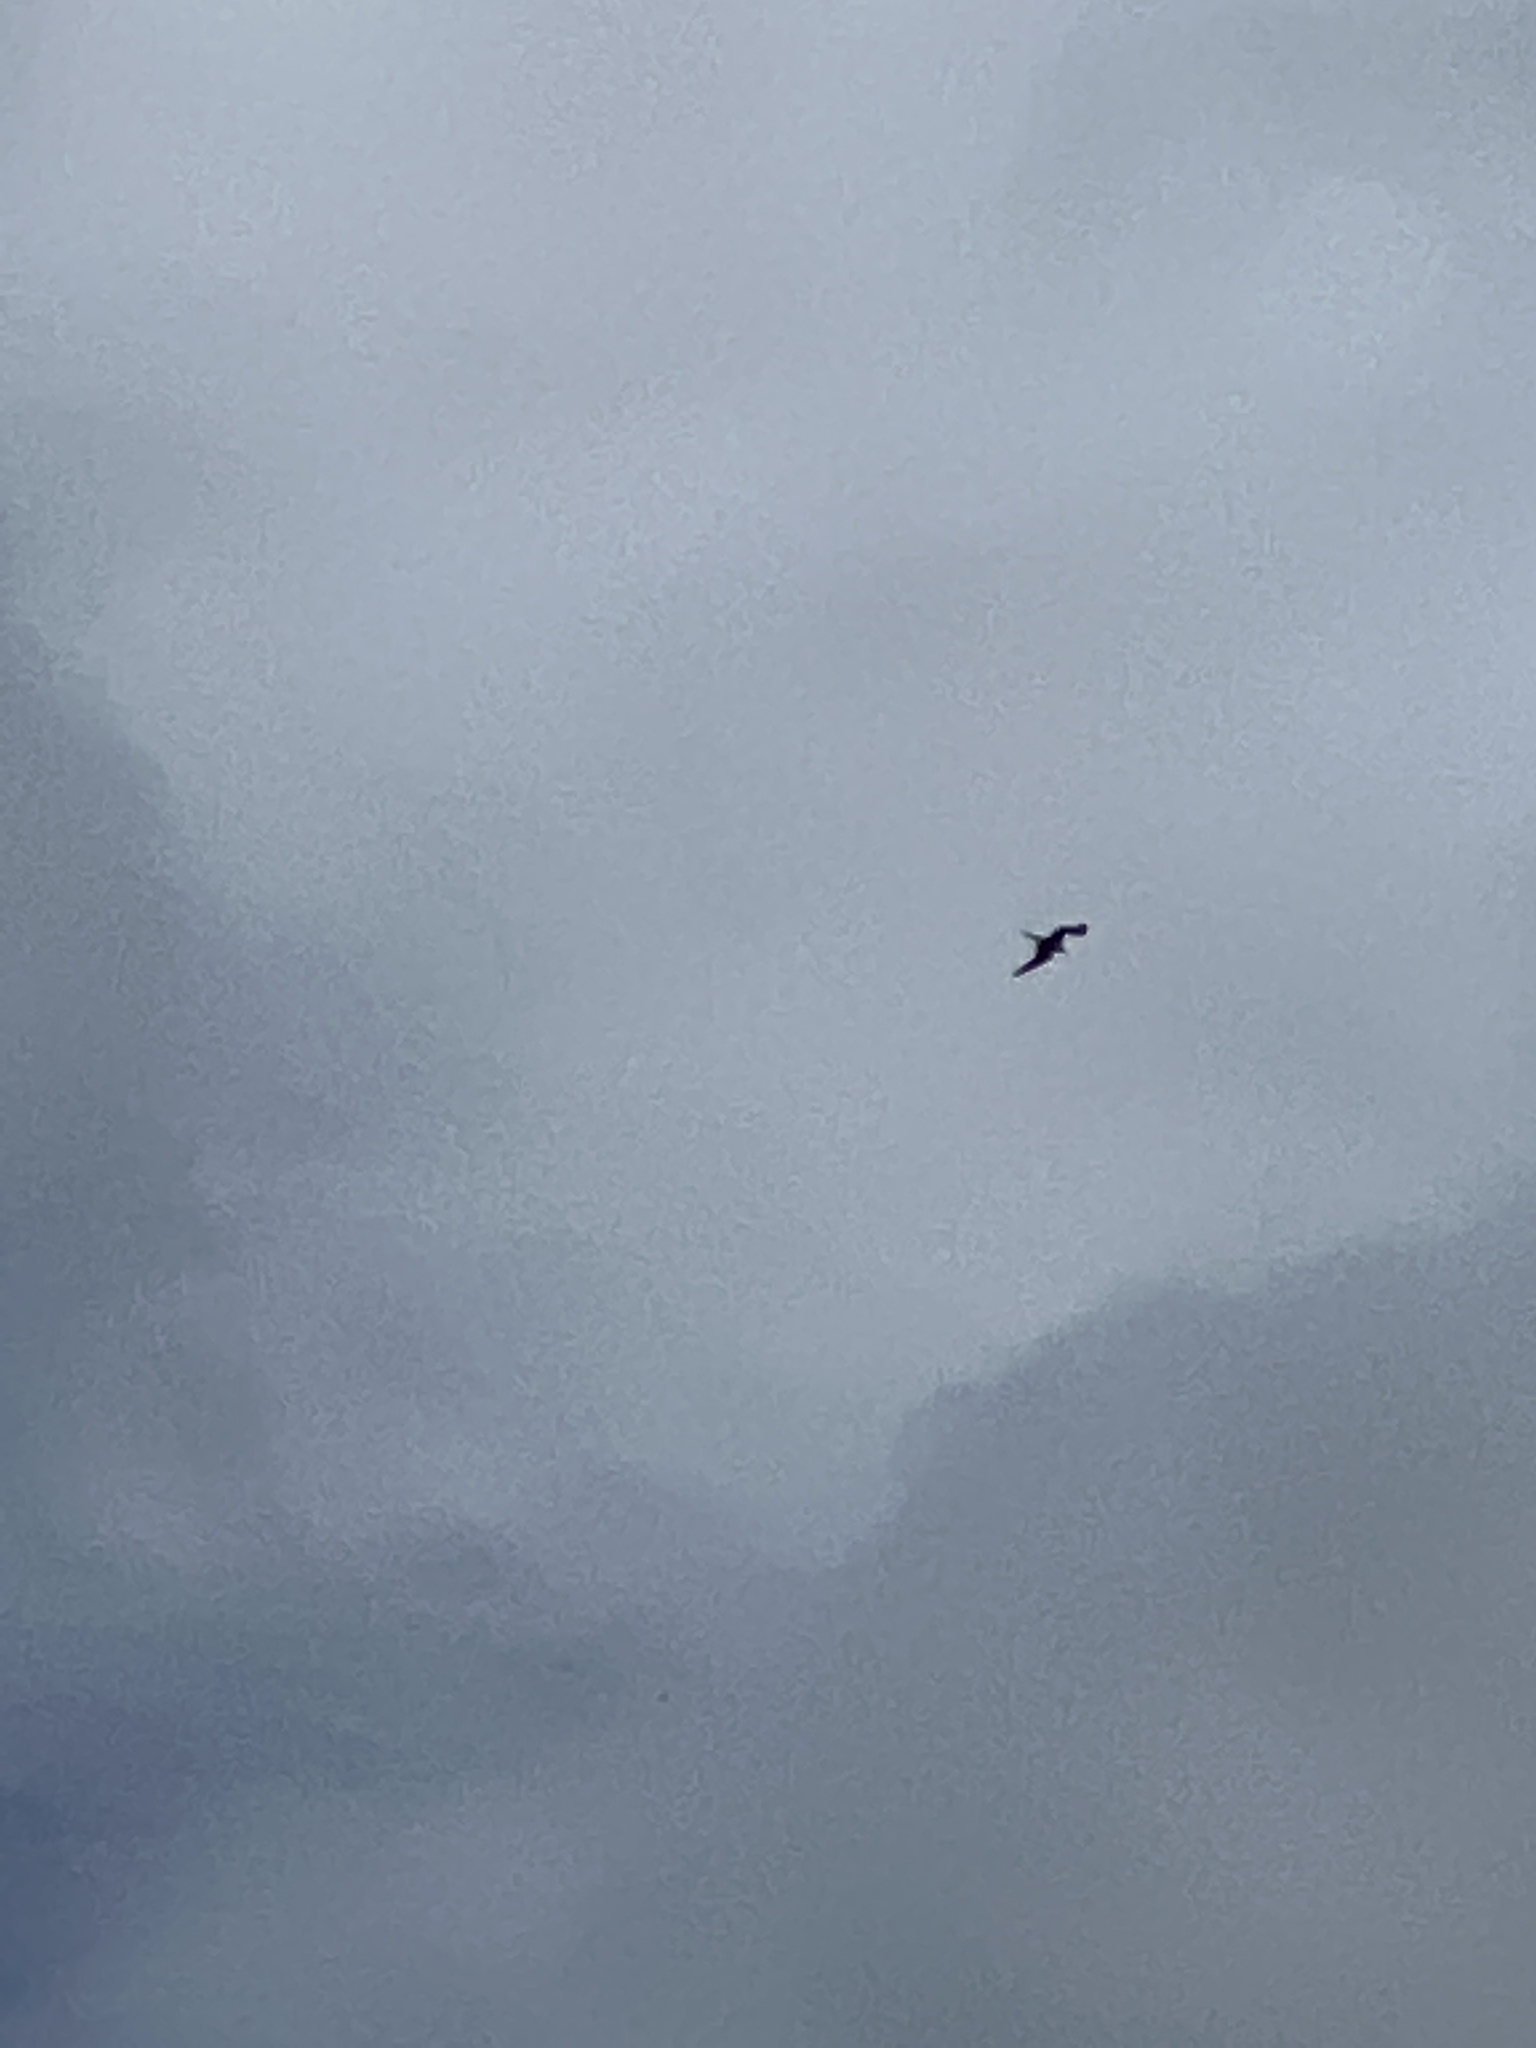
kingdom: Animalia
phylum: Chordata
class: Aves
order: Suliformes
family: Fregatidae
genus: Fregata
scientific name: Fregata magnificens
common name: Magnificent frigatebird
